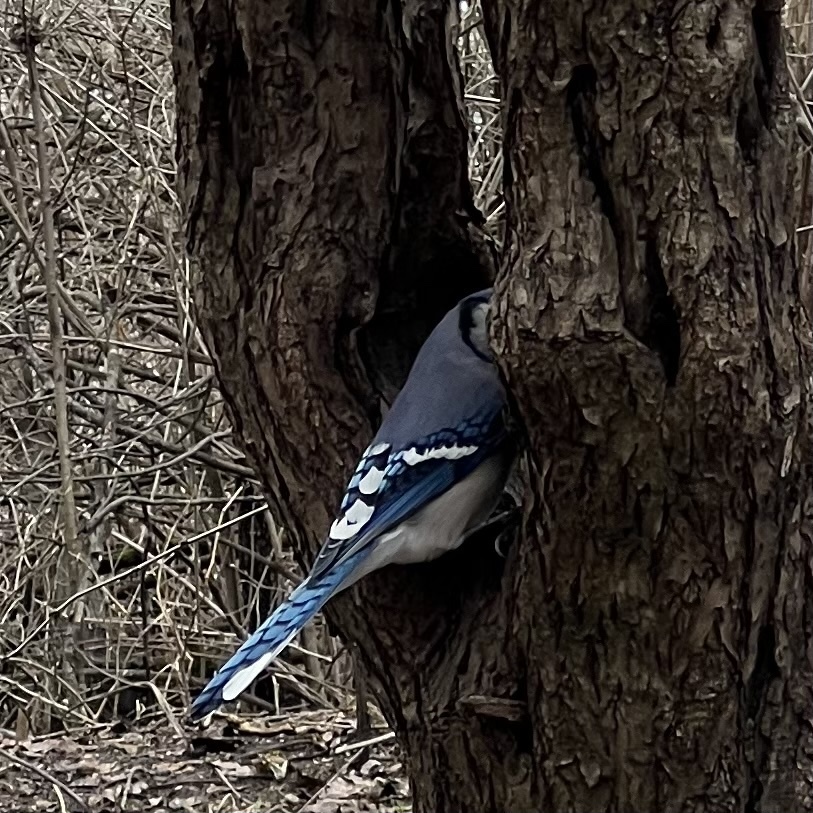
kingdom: Animalia
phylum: Chordata
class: Aves
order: Passeriformes
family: Corvidae
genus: Cyanocitta
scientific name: Cyanocitta cristata
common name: Blue jay
